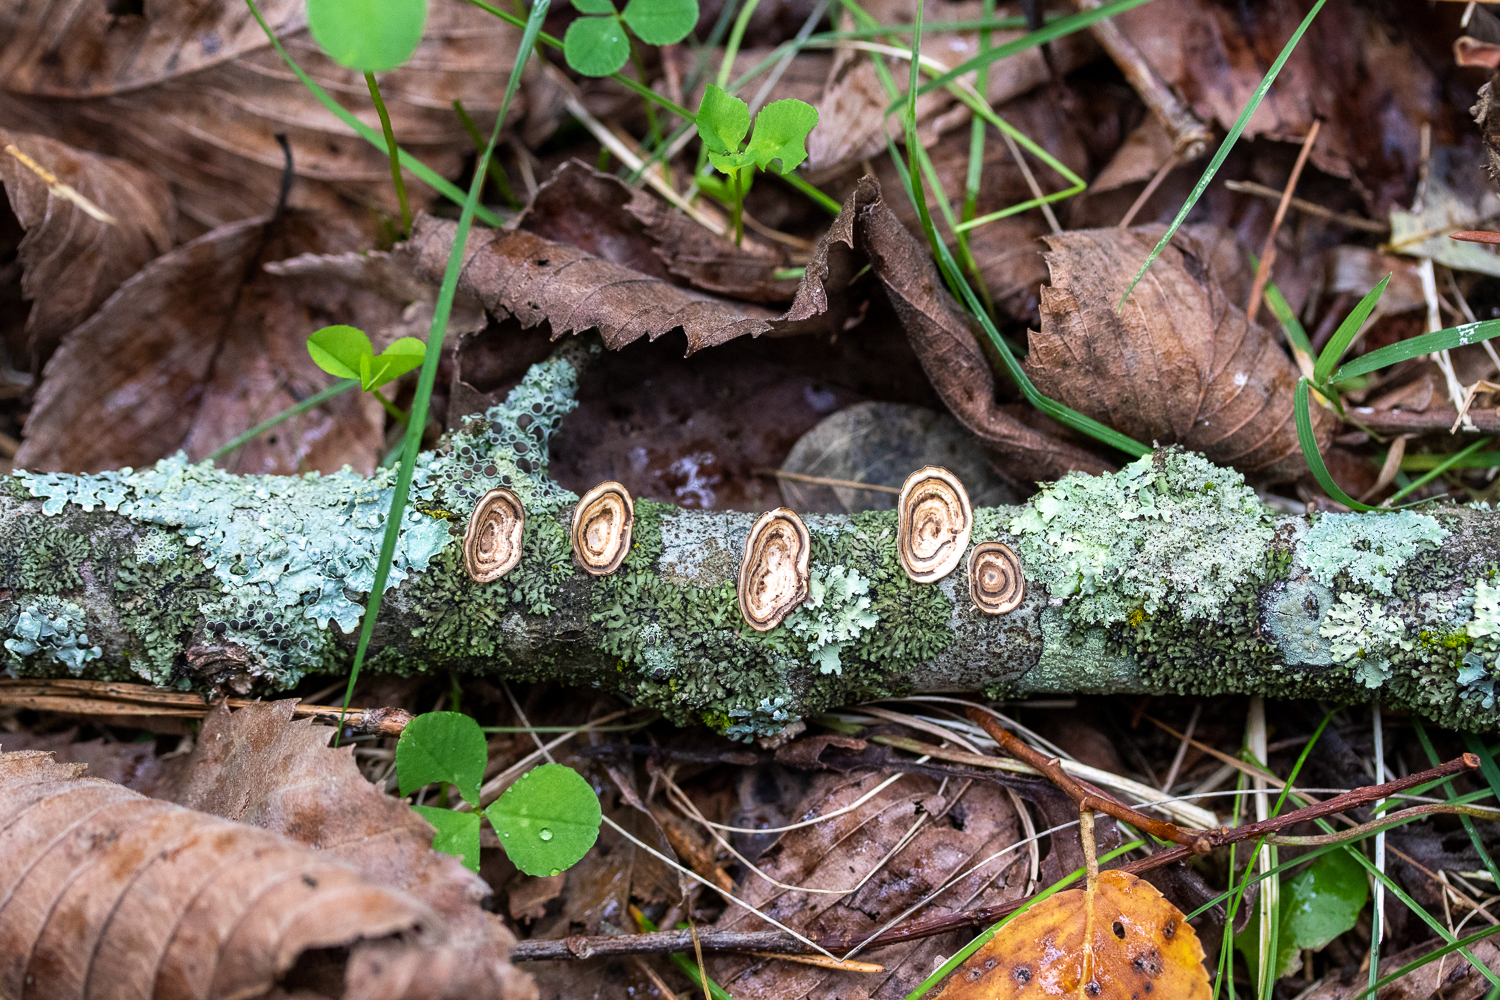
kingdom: Fungi
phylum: Basidiomycota
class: Agaricomycetes
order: Polyporales
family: Polyporaceae
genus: Poronidulus
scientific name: Poronidulus conchifer
